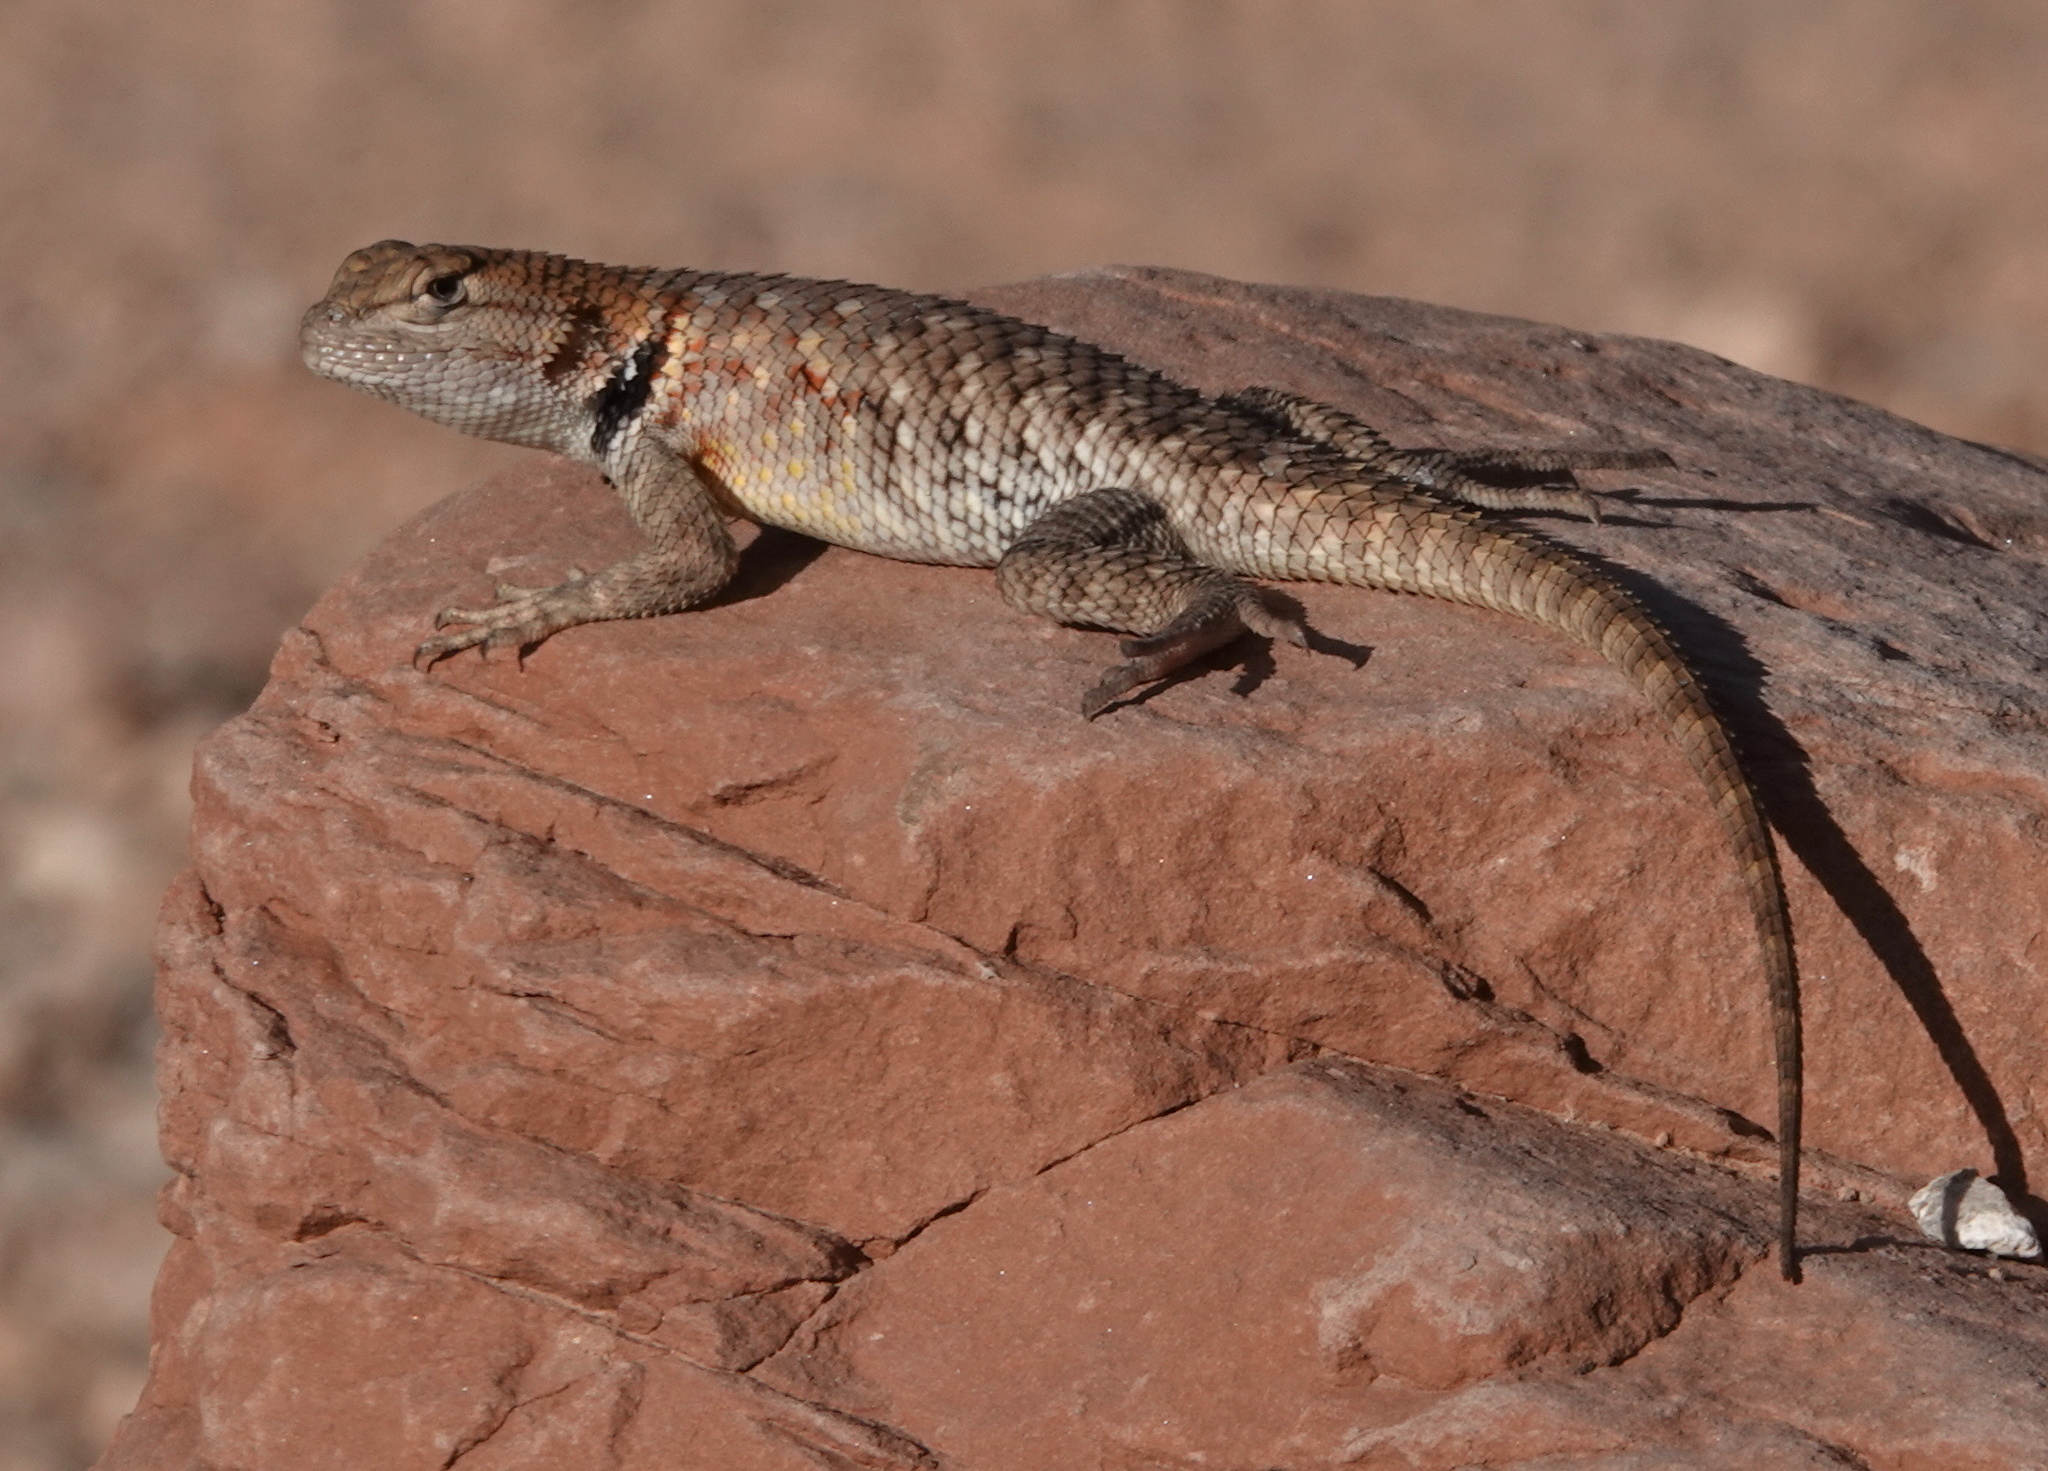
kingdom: Animalia
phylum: Chordata
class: Squamata
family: Phrynosomatidae
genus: Sceloporus
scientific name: Sceloporus uniformis
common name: Yellow-backed spiny lizard
